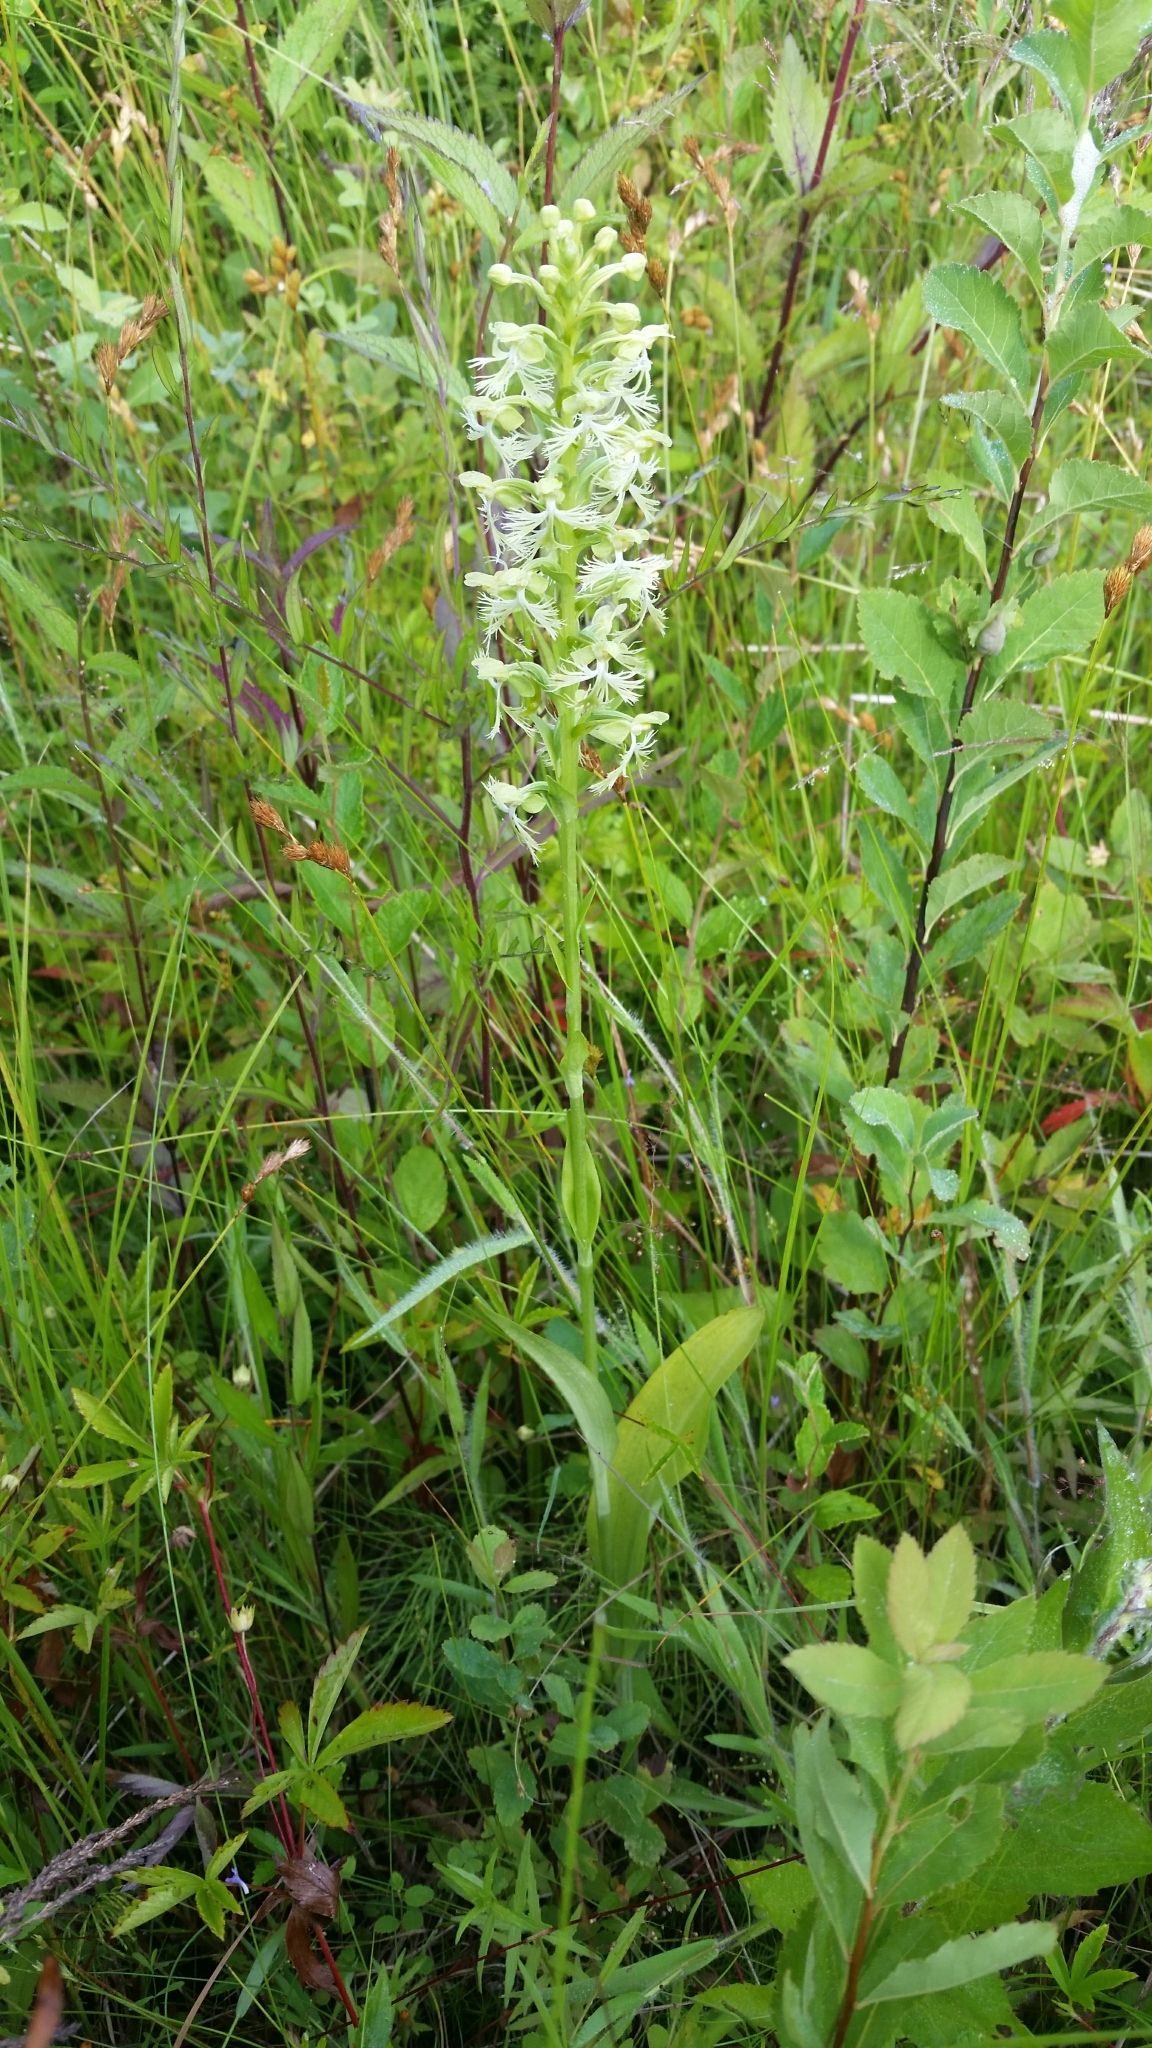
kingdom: Plantae
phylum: Tracheophyta
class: Liliopsida
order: Asparagales
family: Orchidaceae
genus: Platanthera
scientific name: Platanthera lacera
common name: Green fringed orchid
